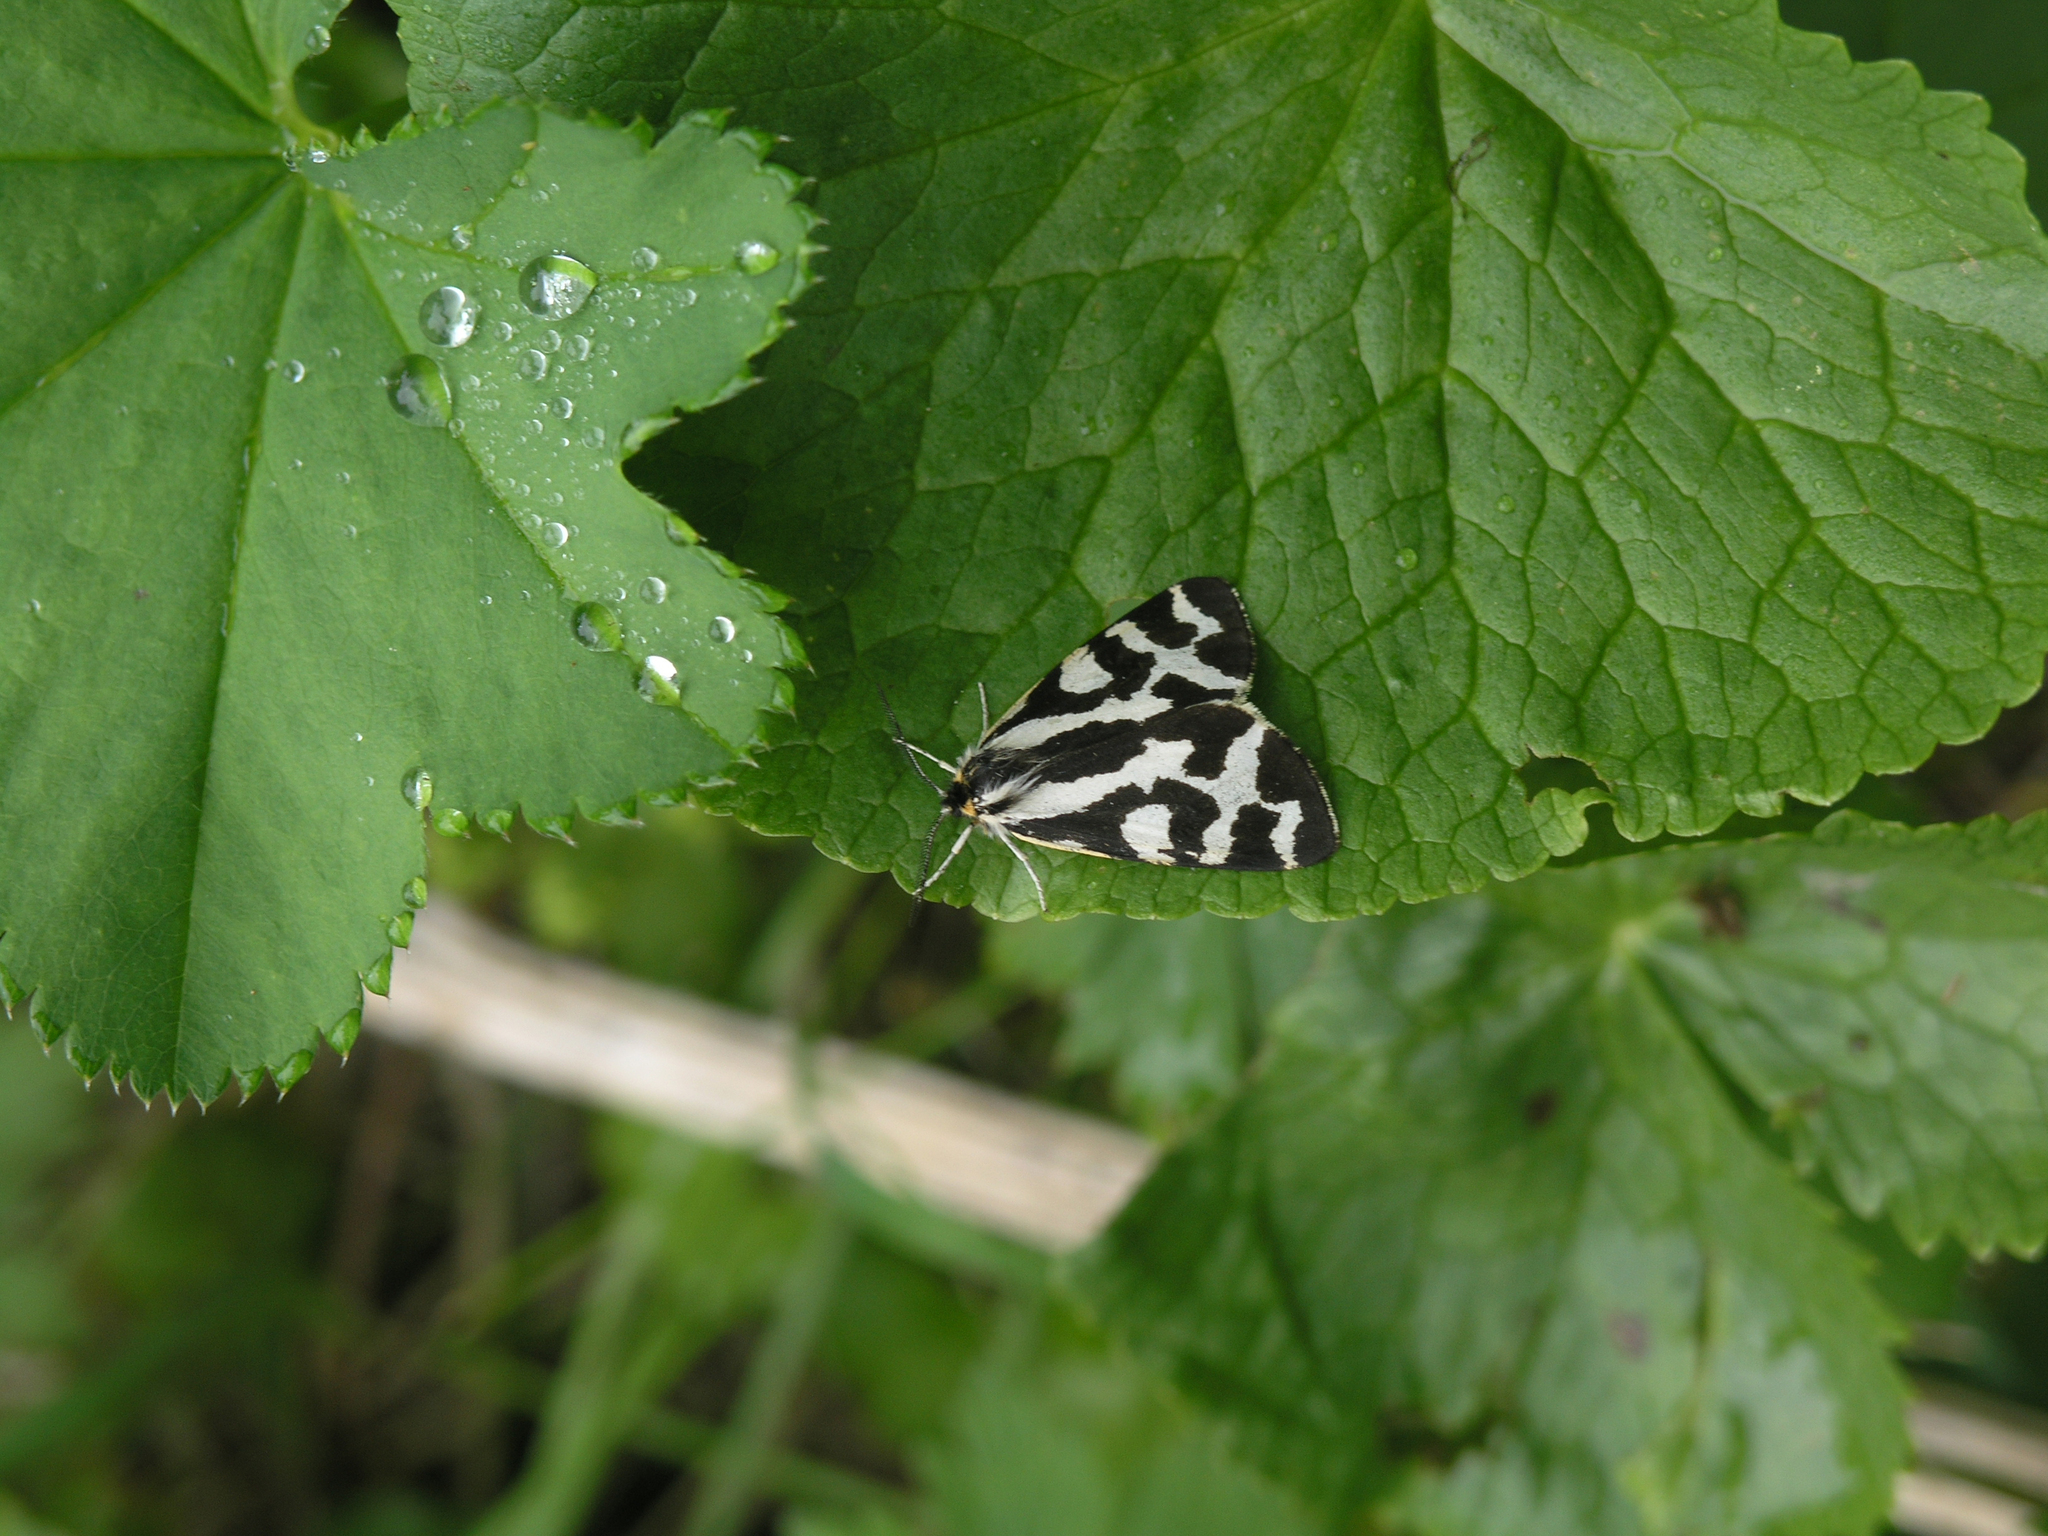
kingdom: Plantae
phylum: Tracheophyta
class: Magnoliopsida
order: Ranunculales
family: Ranunculaceae
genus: Caltha
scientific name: Caltha palustris
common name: Marsh marigold
